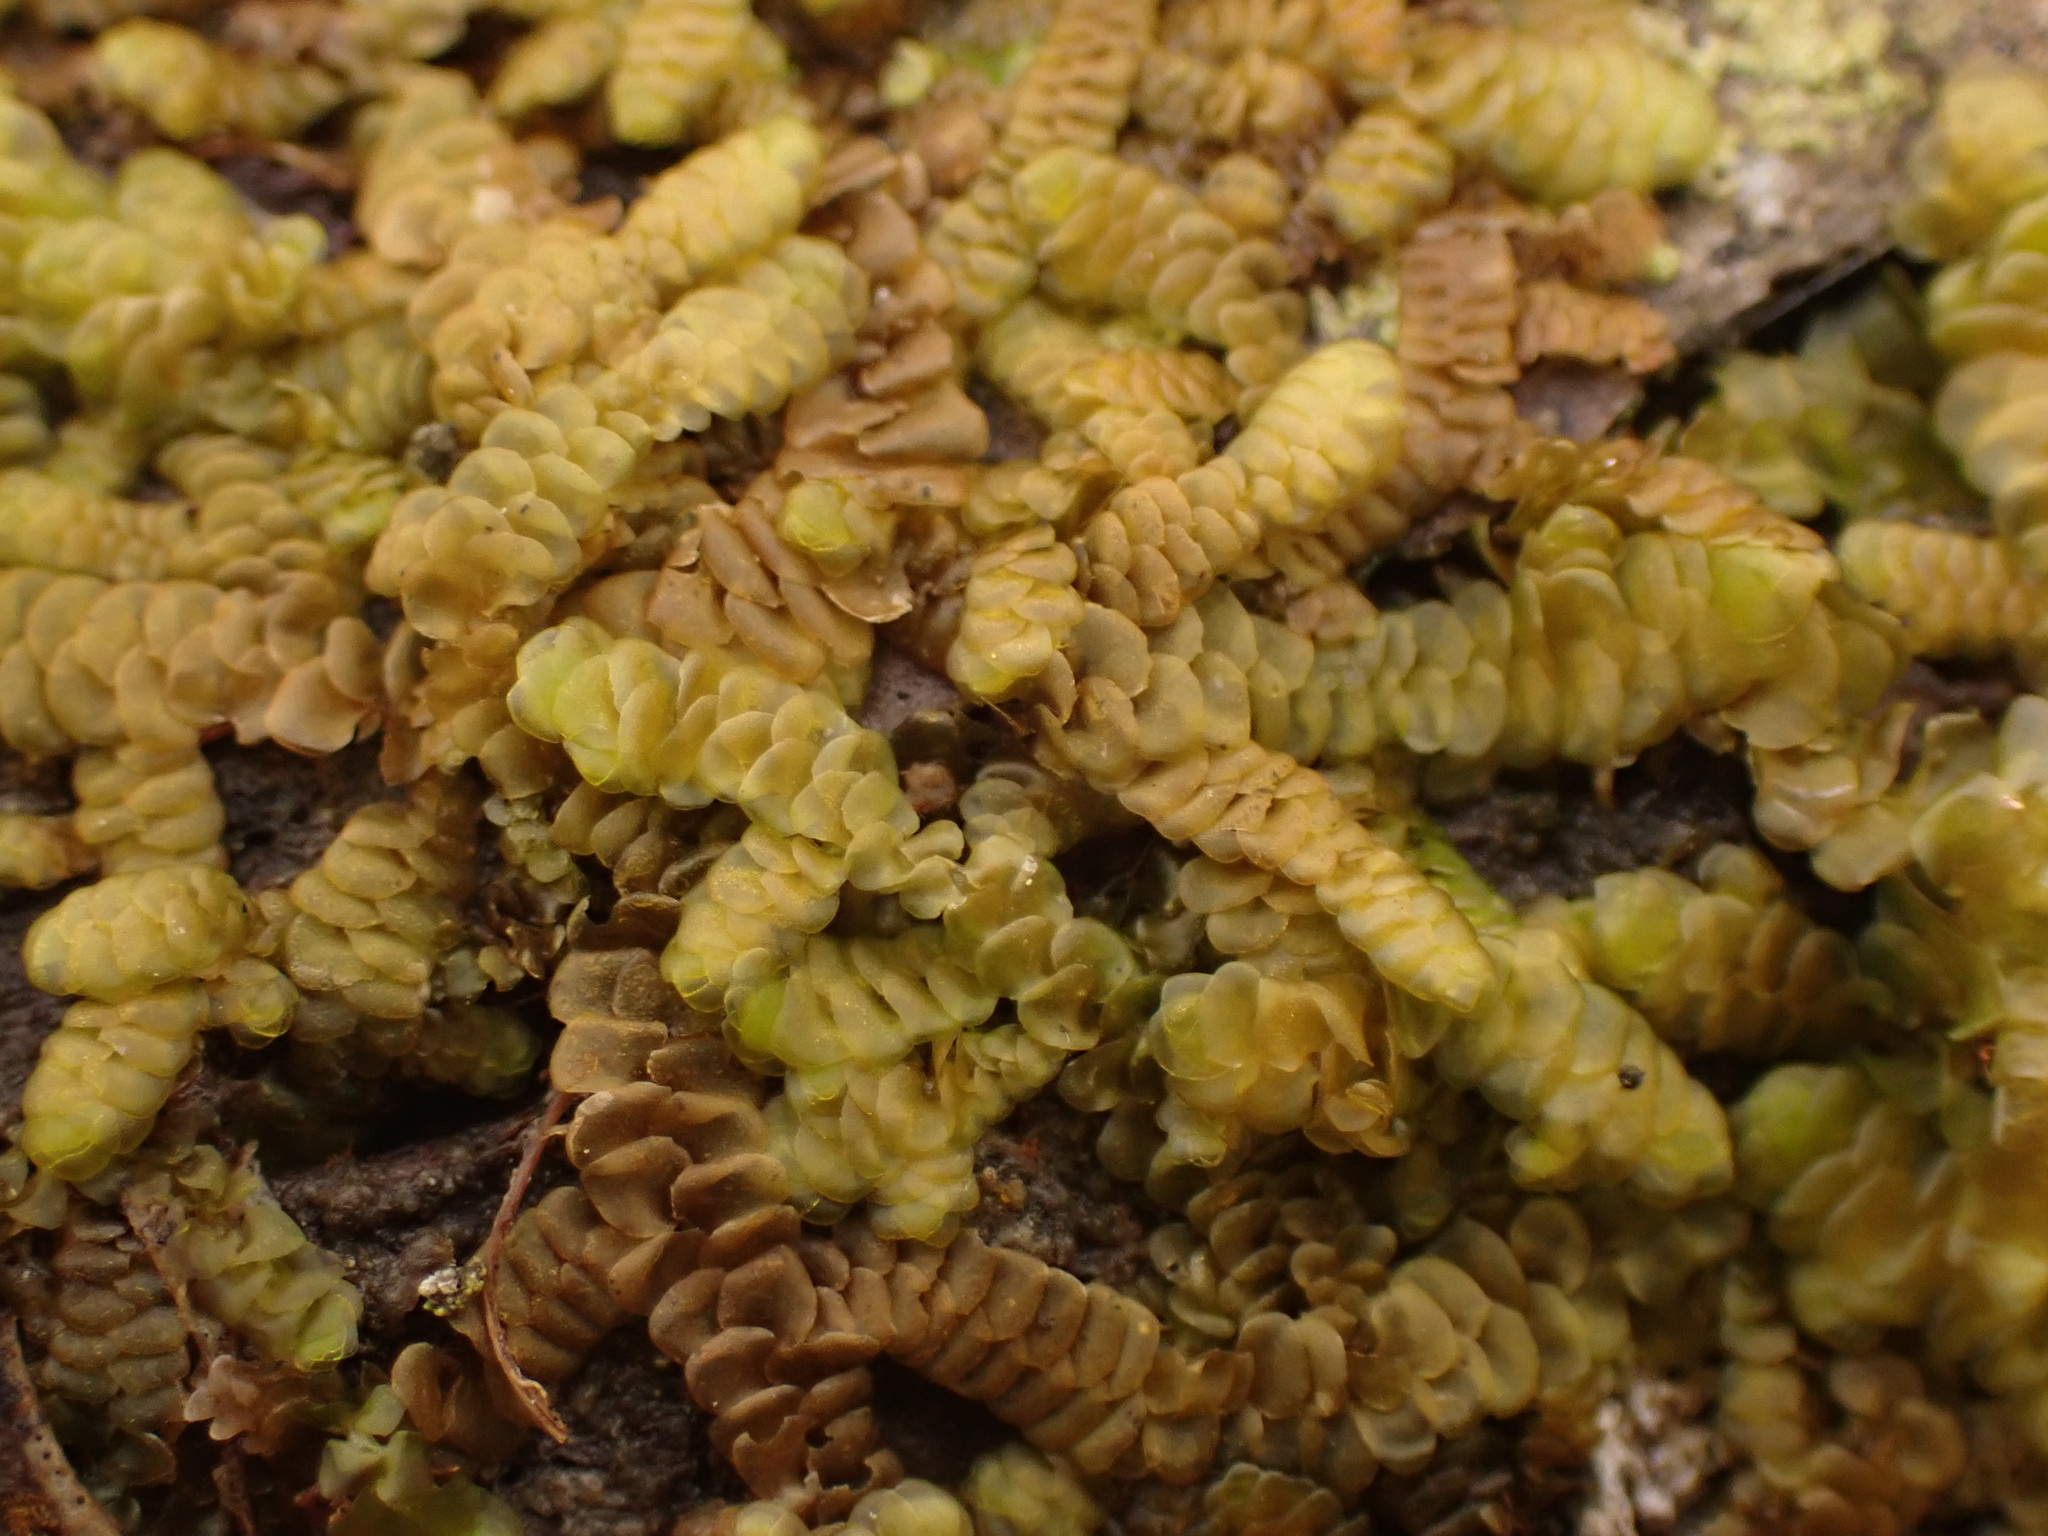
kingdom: Plantae
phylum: Marchantiophyta
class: Jungermanniopsida
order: Porellales
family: Porellaceae
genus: Porella
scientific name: Porella navicularis
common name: Tree ruffle liverwort
